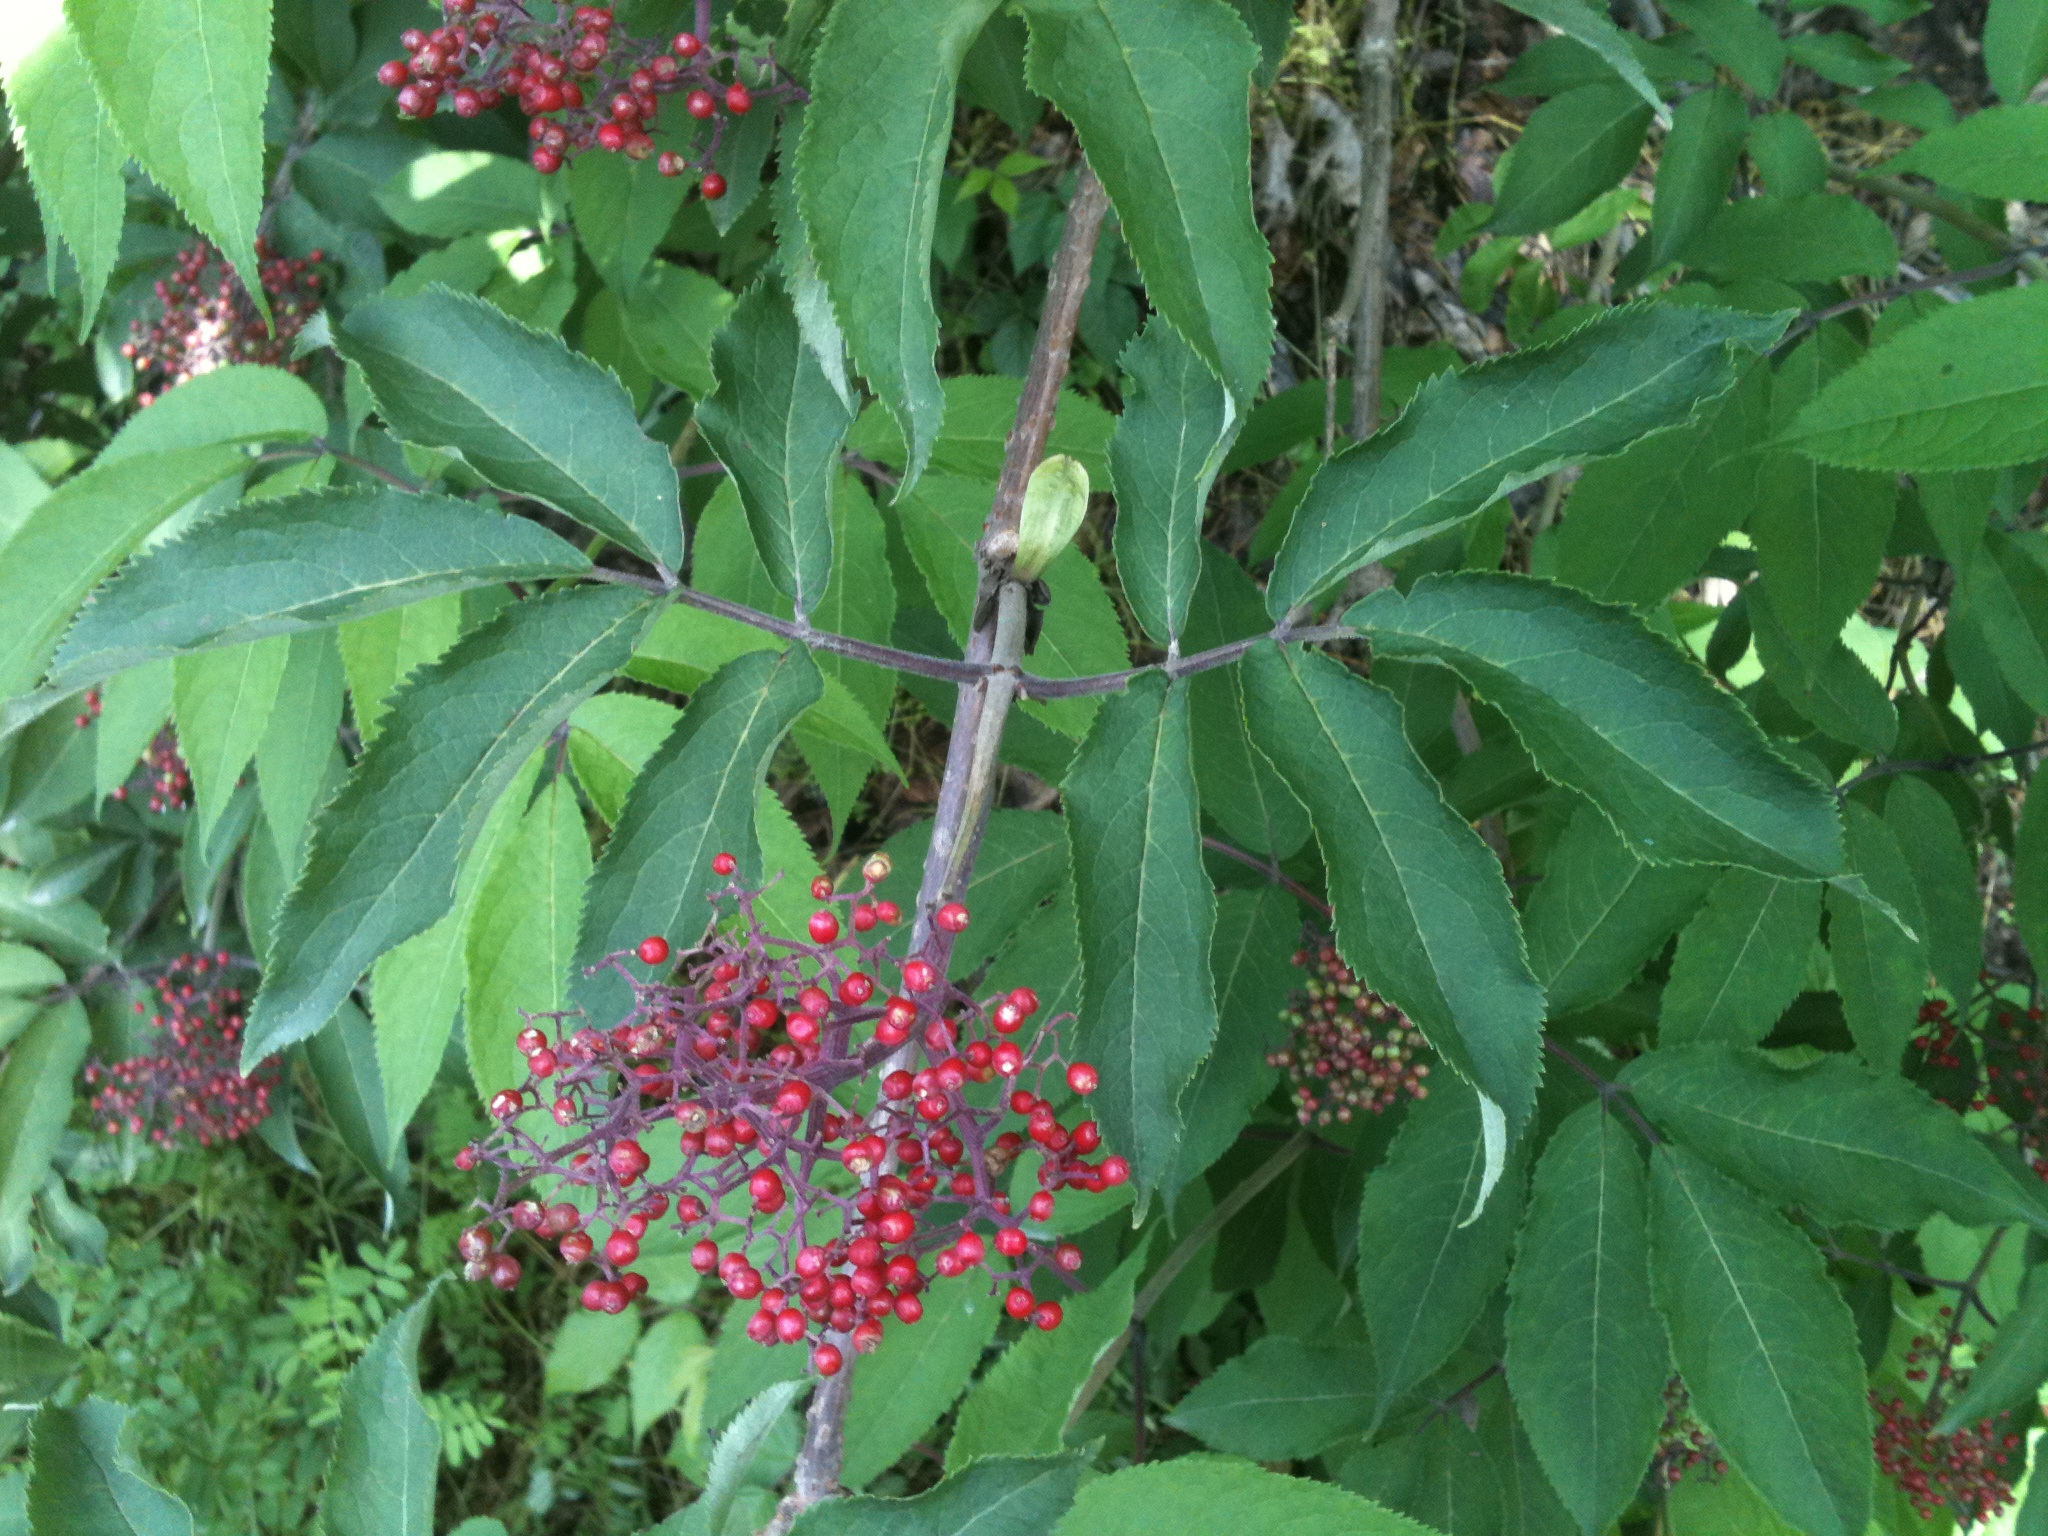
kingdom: Plantae
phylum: Tracheophyta
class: Magnoliopsida
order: Dipsacales
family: Viburnaceae
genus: Sambucus
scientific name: Sambucus racemosa
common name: Red-berried elder
